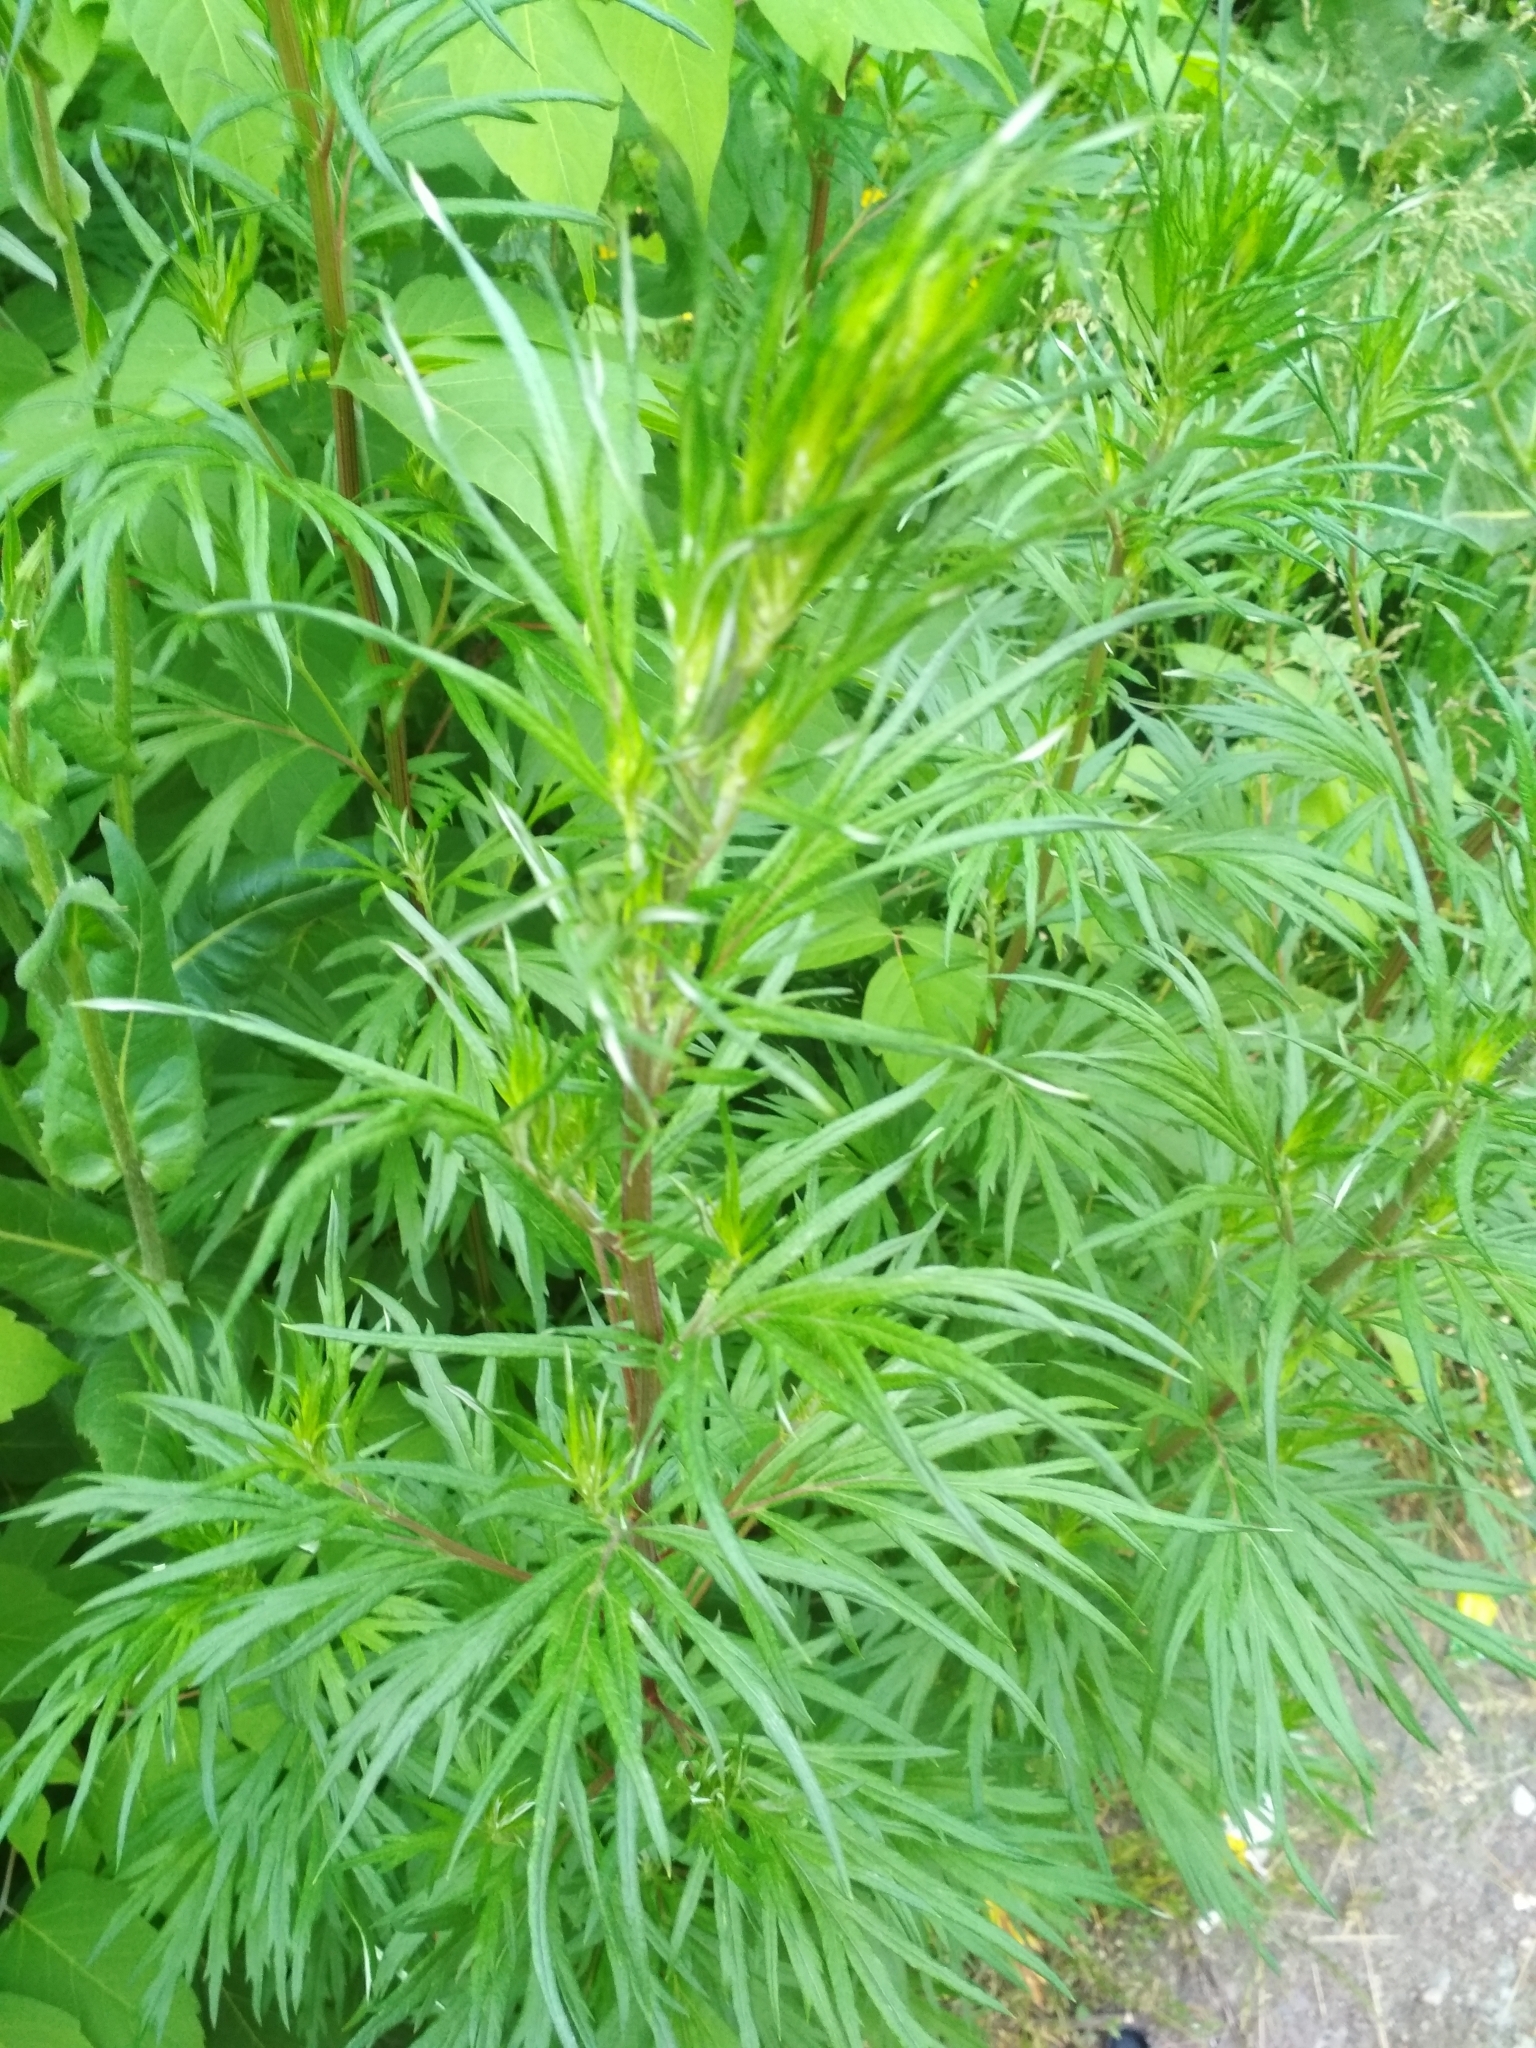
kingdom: Plantae
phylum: Tracheophyta
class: Magnoliopsida
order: Asterales
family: Asteraceae
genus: Artemisia
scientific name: Artemisia vulgaris
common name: Mugwort
